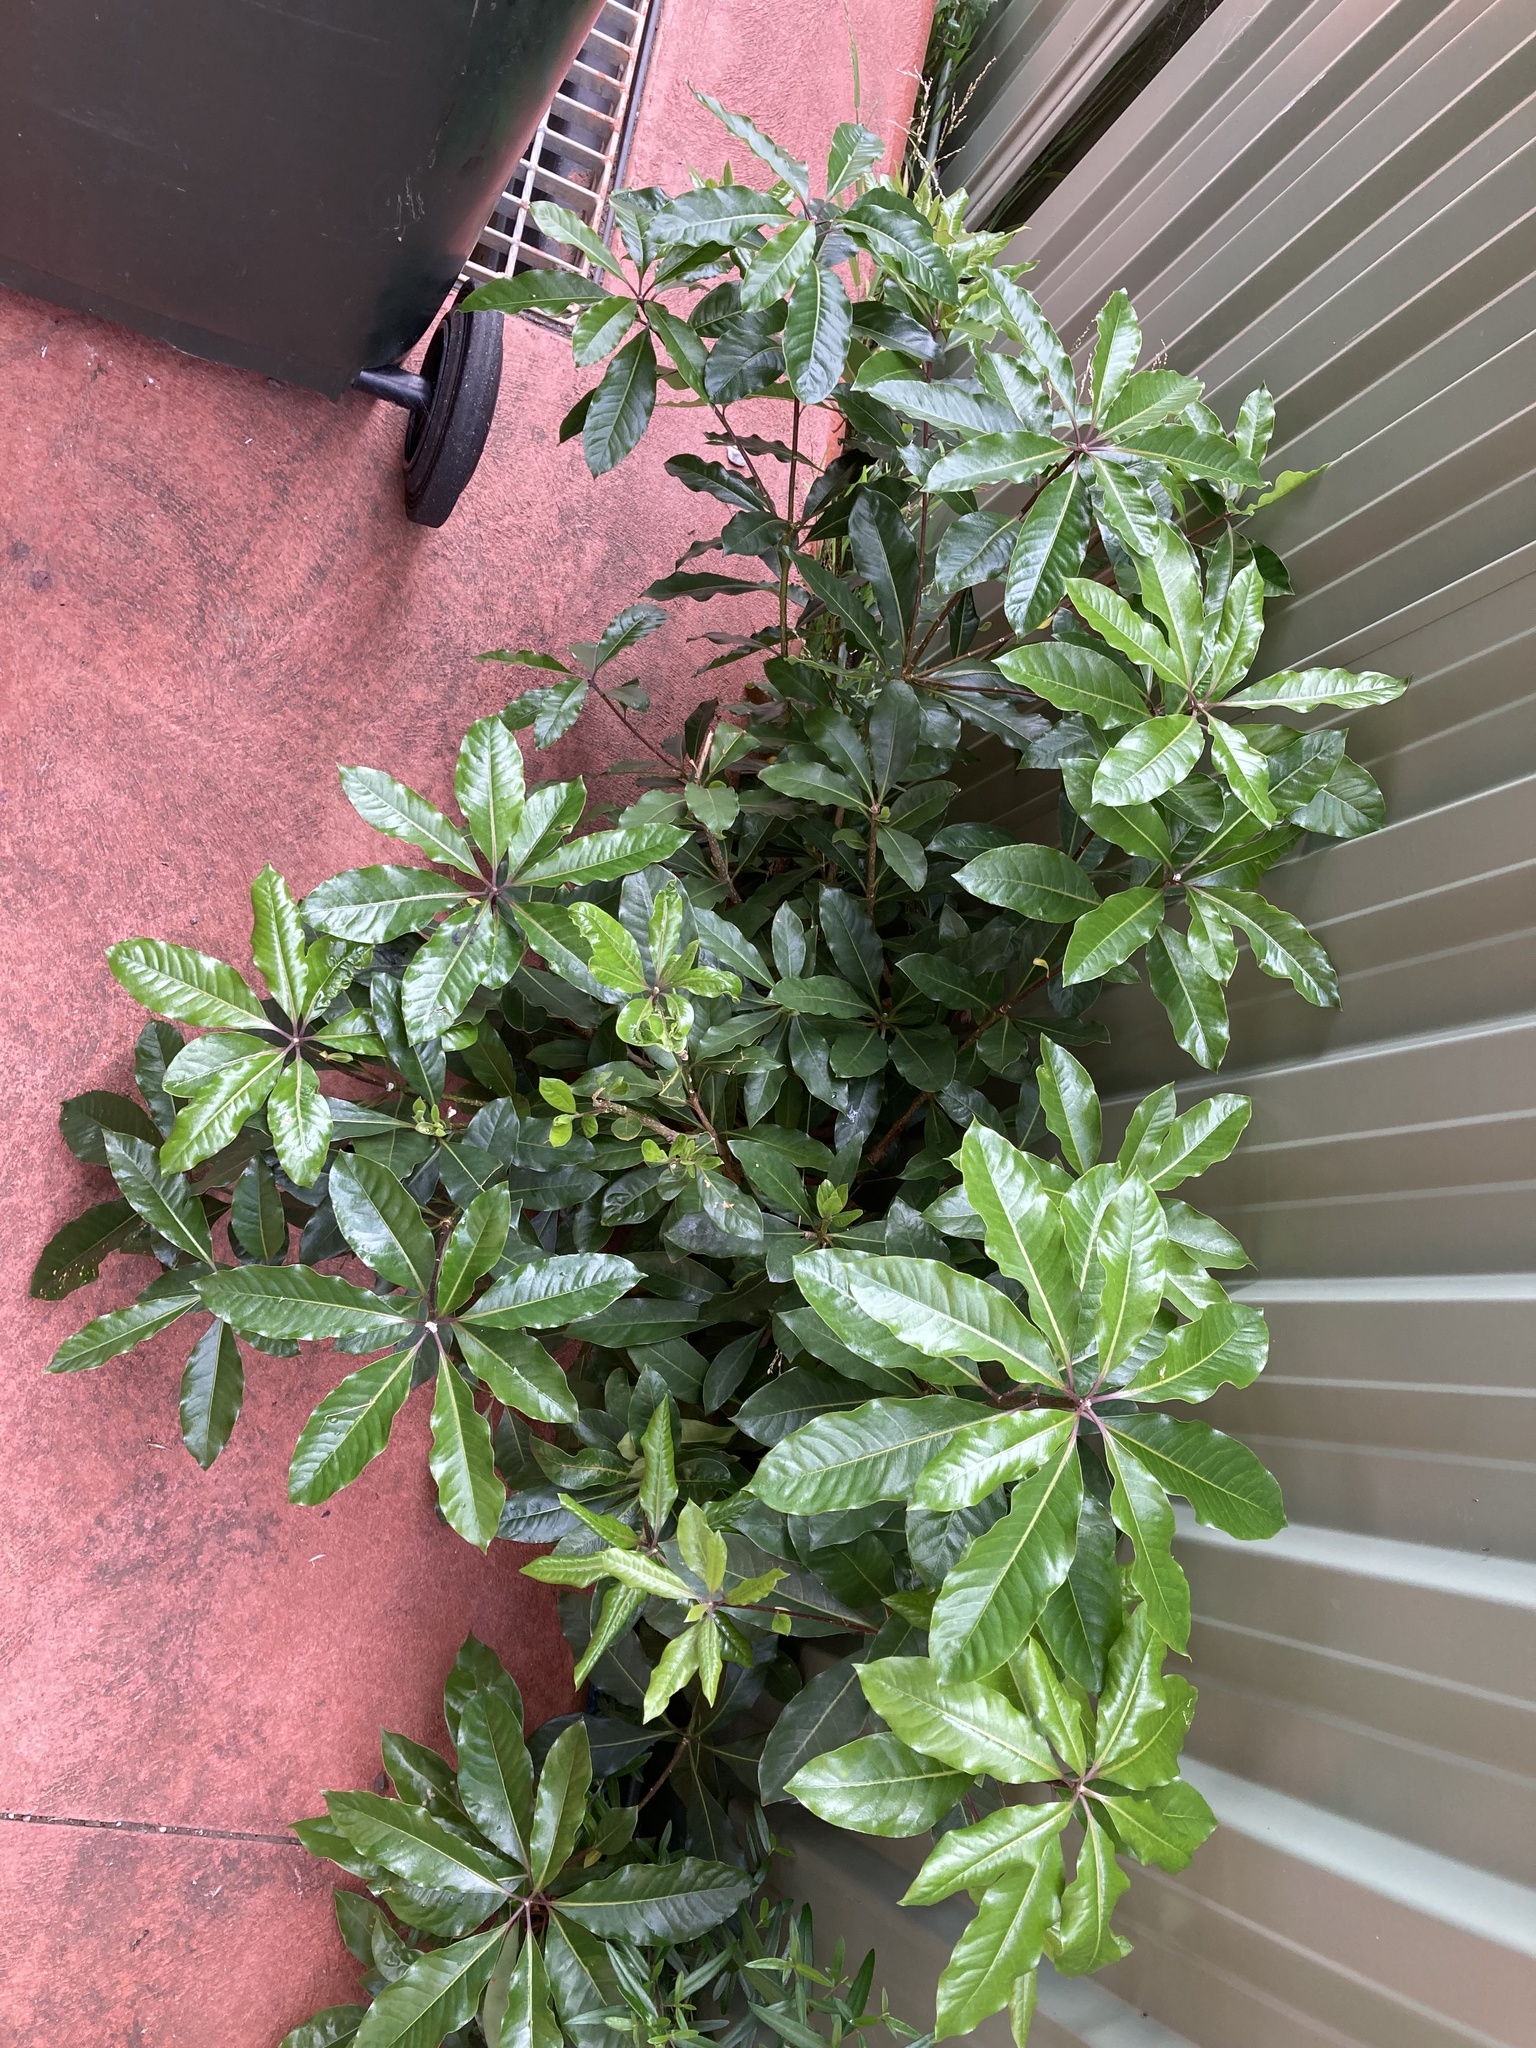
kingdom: Plantae
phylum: Tracheophyta
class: Magnoliopsida
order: Apiales
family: Pittosporaceae
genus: Pittosporum
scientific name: Pittosporum undulatum
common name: Australian cheesewood
